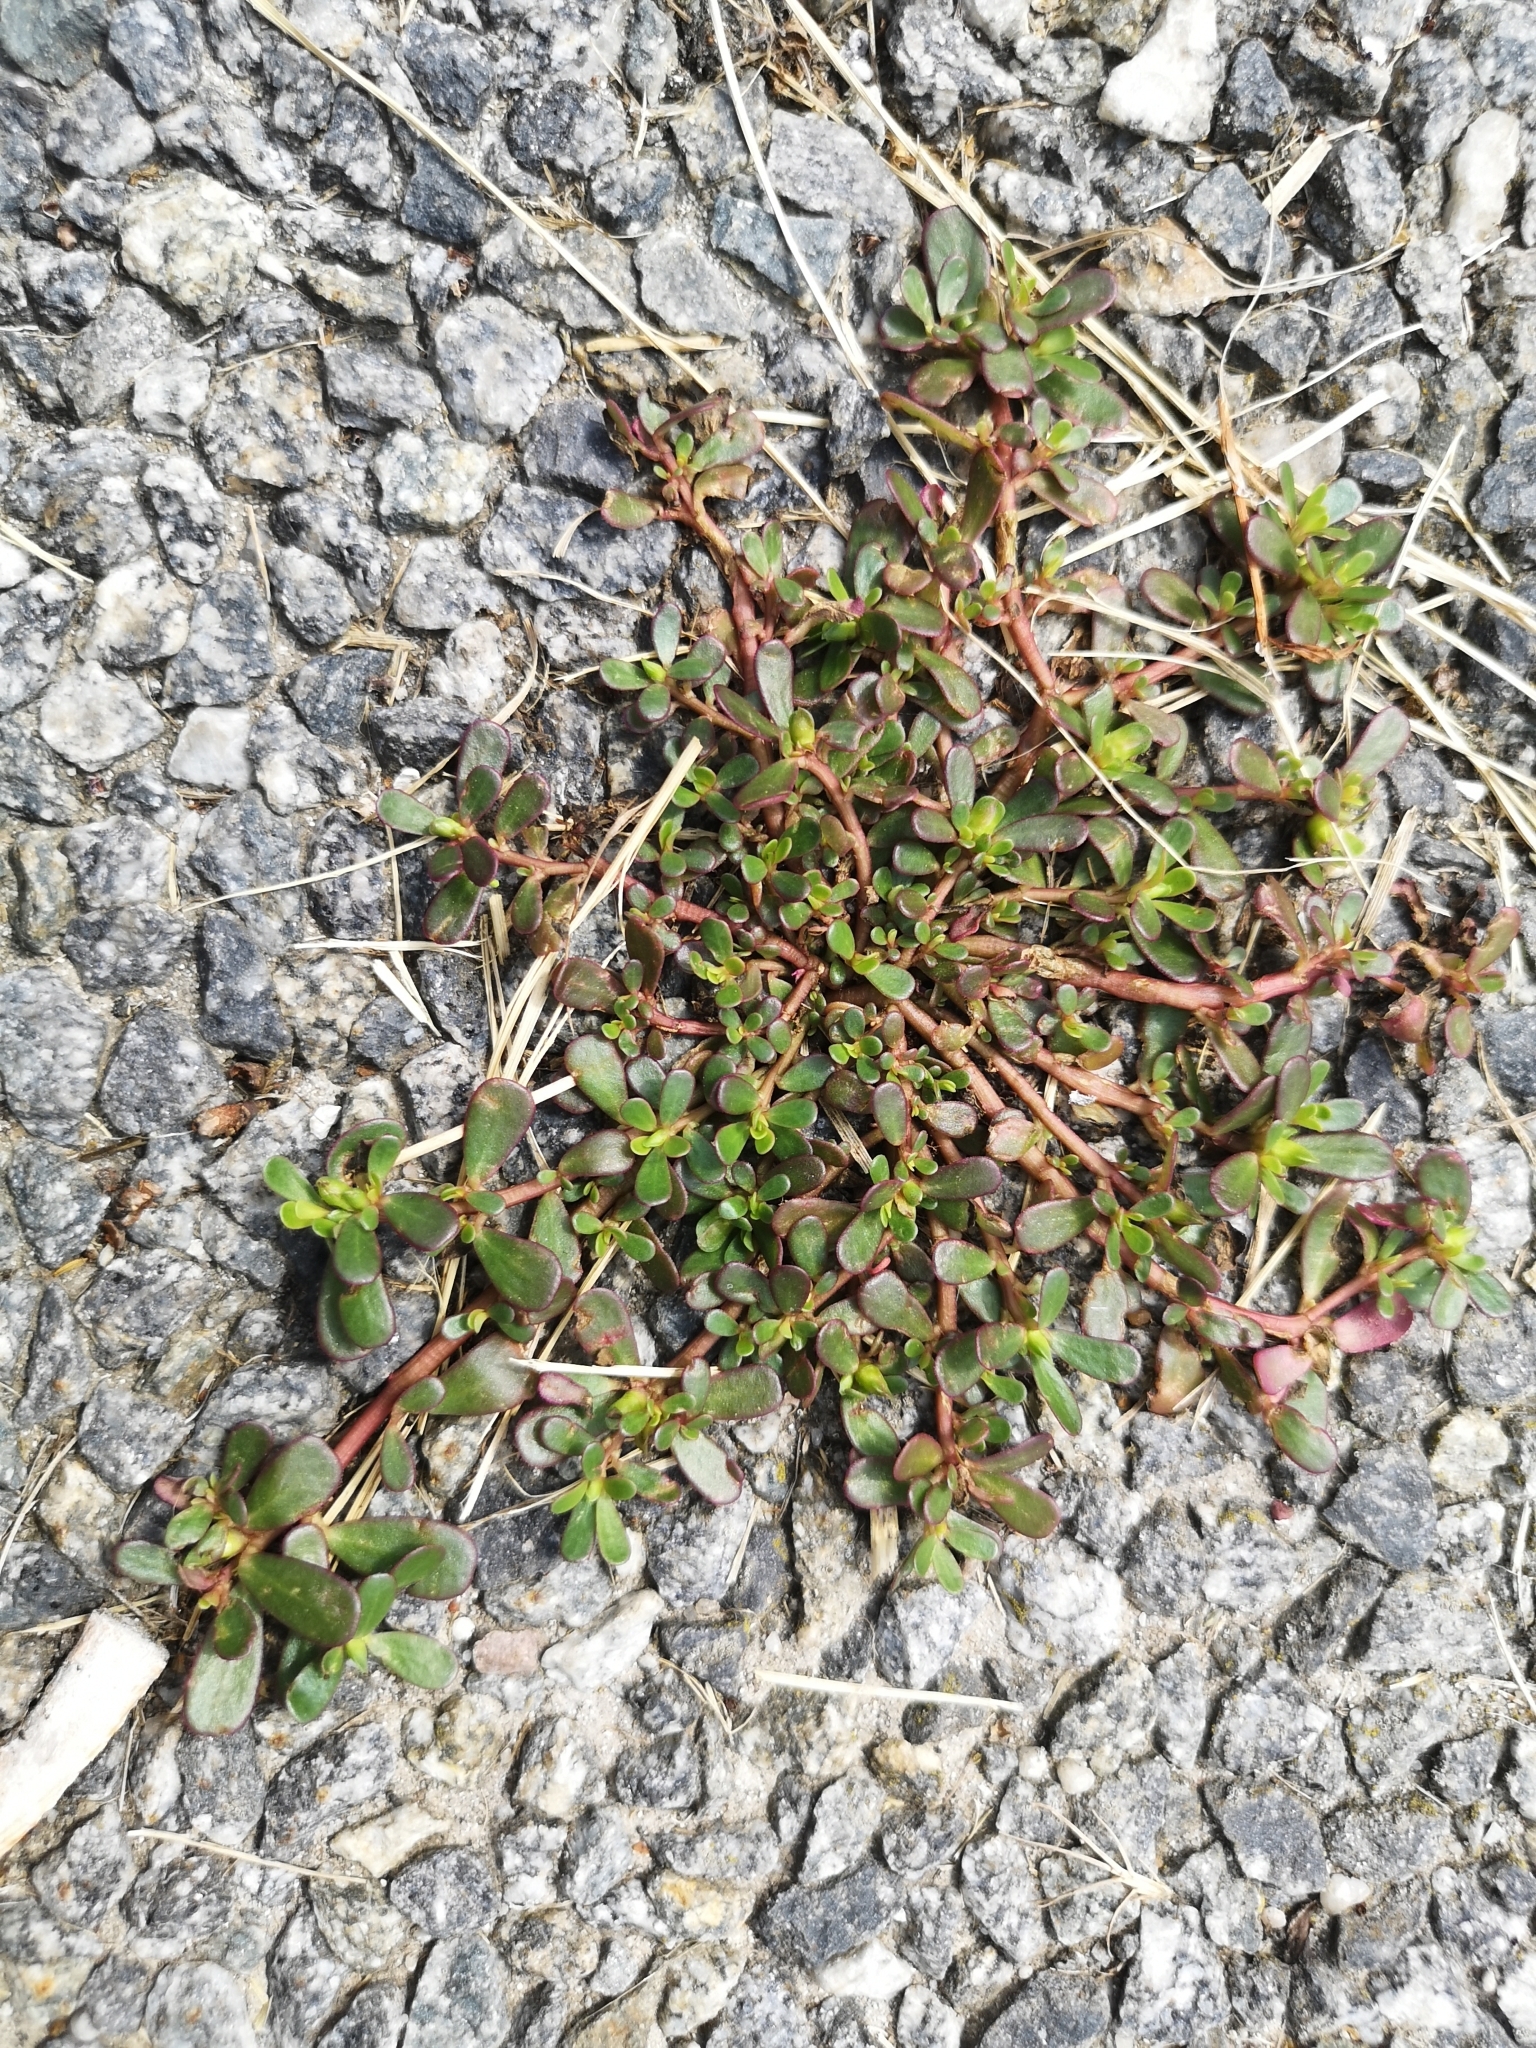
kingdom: Plantae
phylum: Tracheophyta
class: Magnoliopsida
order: Caryophyllales
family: Portulacaceae
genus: Portulaca
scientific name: Portulaca oleracea
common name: Common purslane
